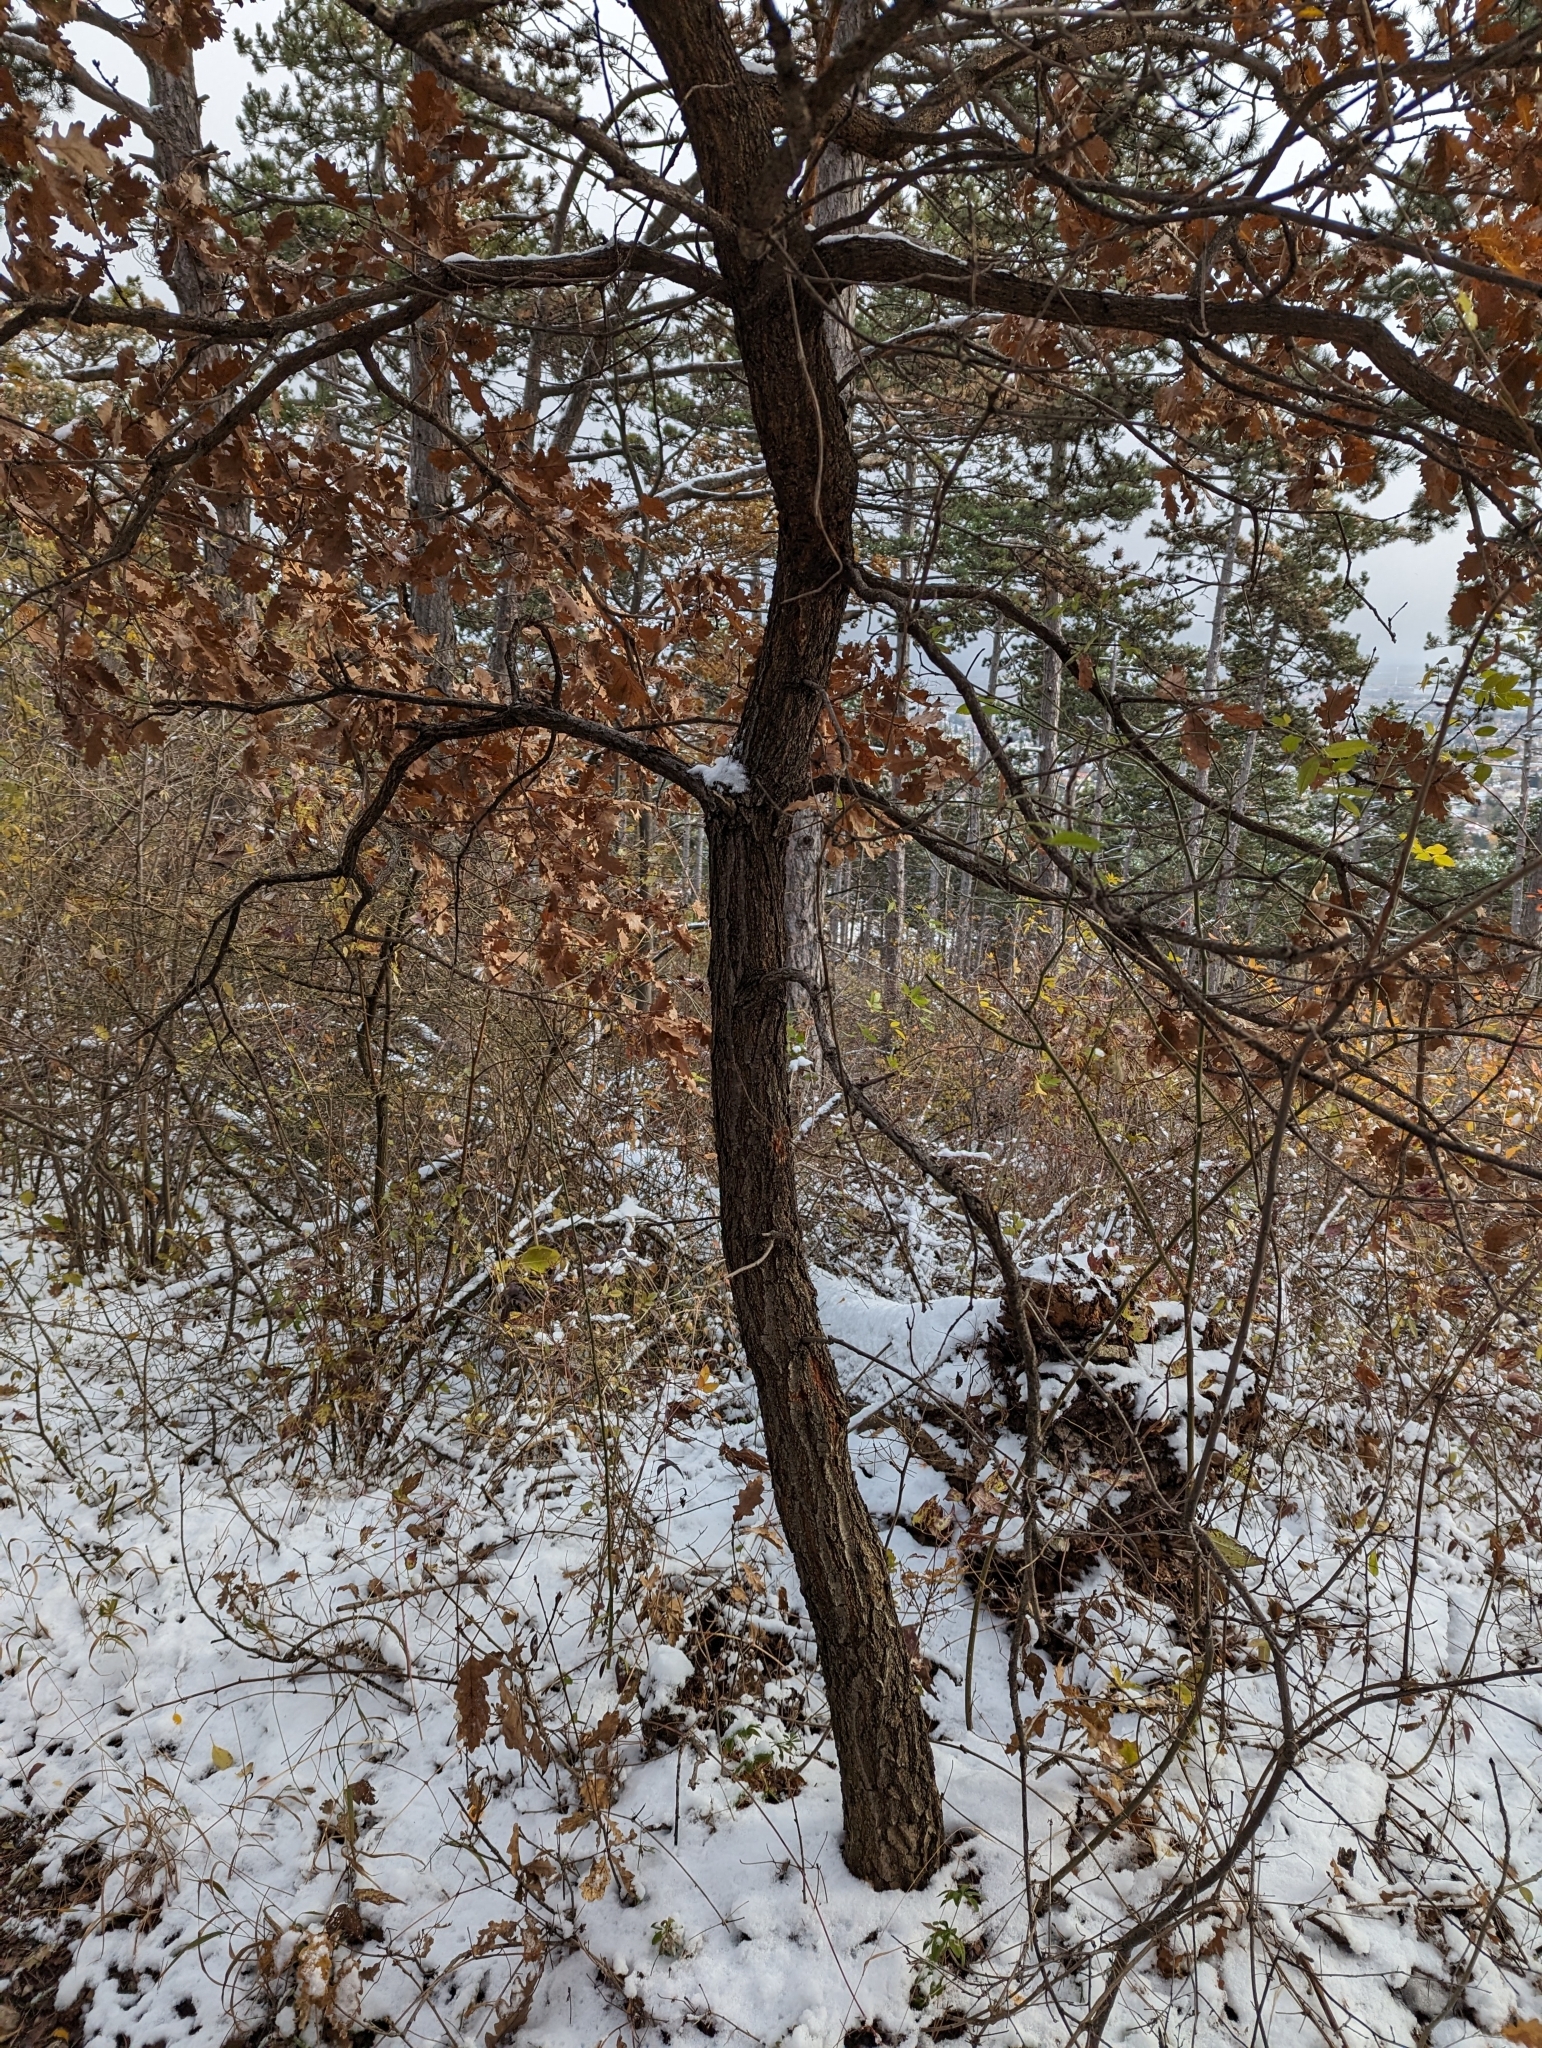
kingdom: Plantae
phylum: Tracheophyta
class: Magnoliopsida
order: Fagales
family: Fagaceae
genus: Quercus
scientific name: Quercus pubescens
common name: Downy oak
